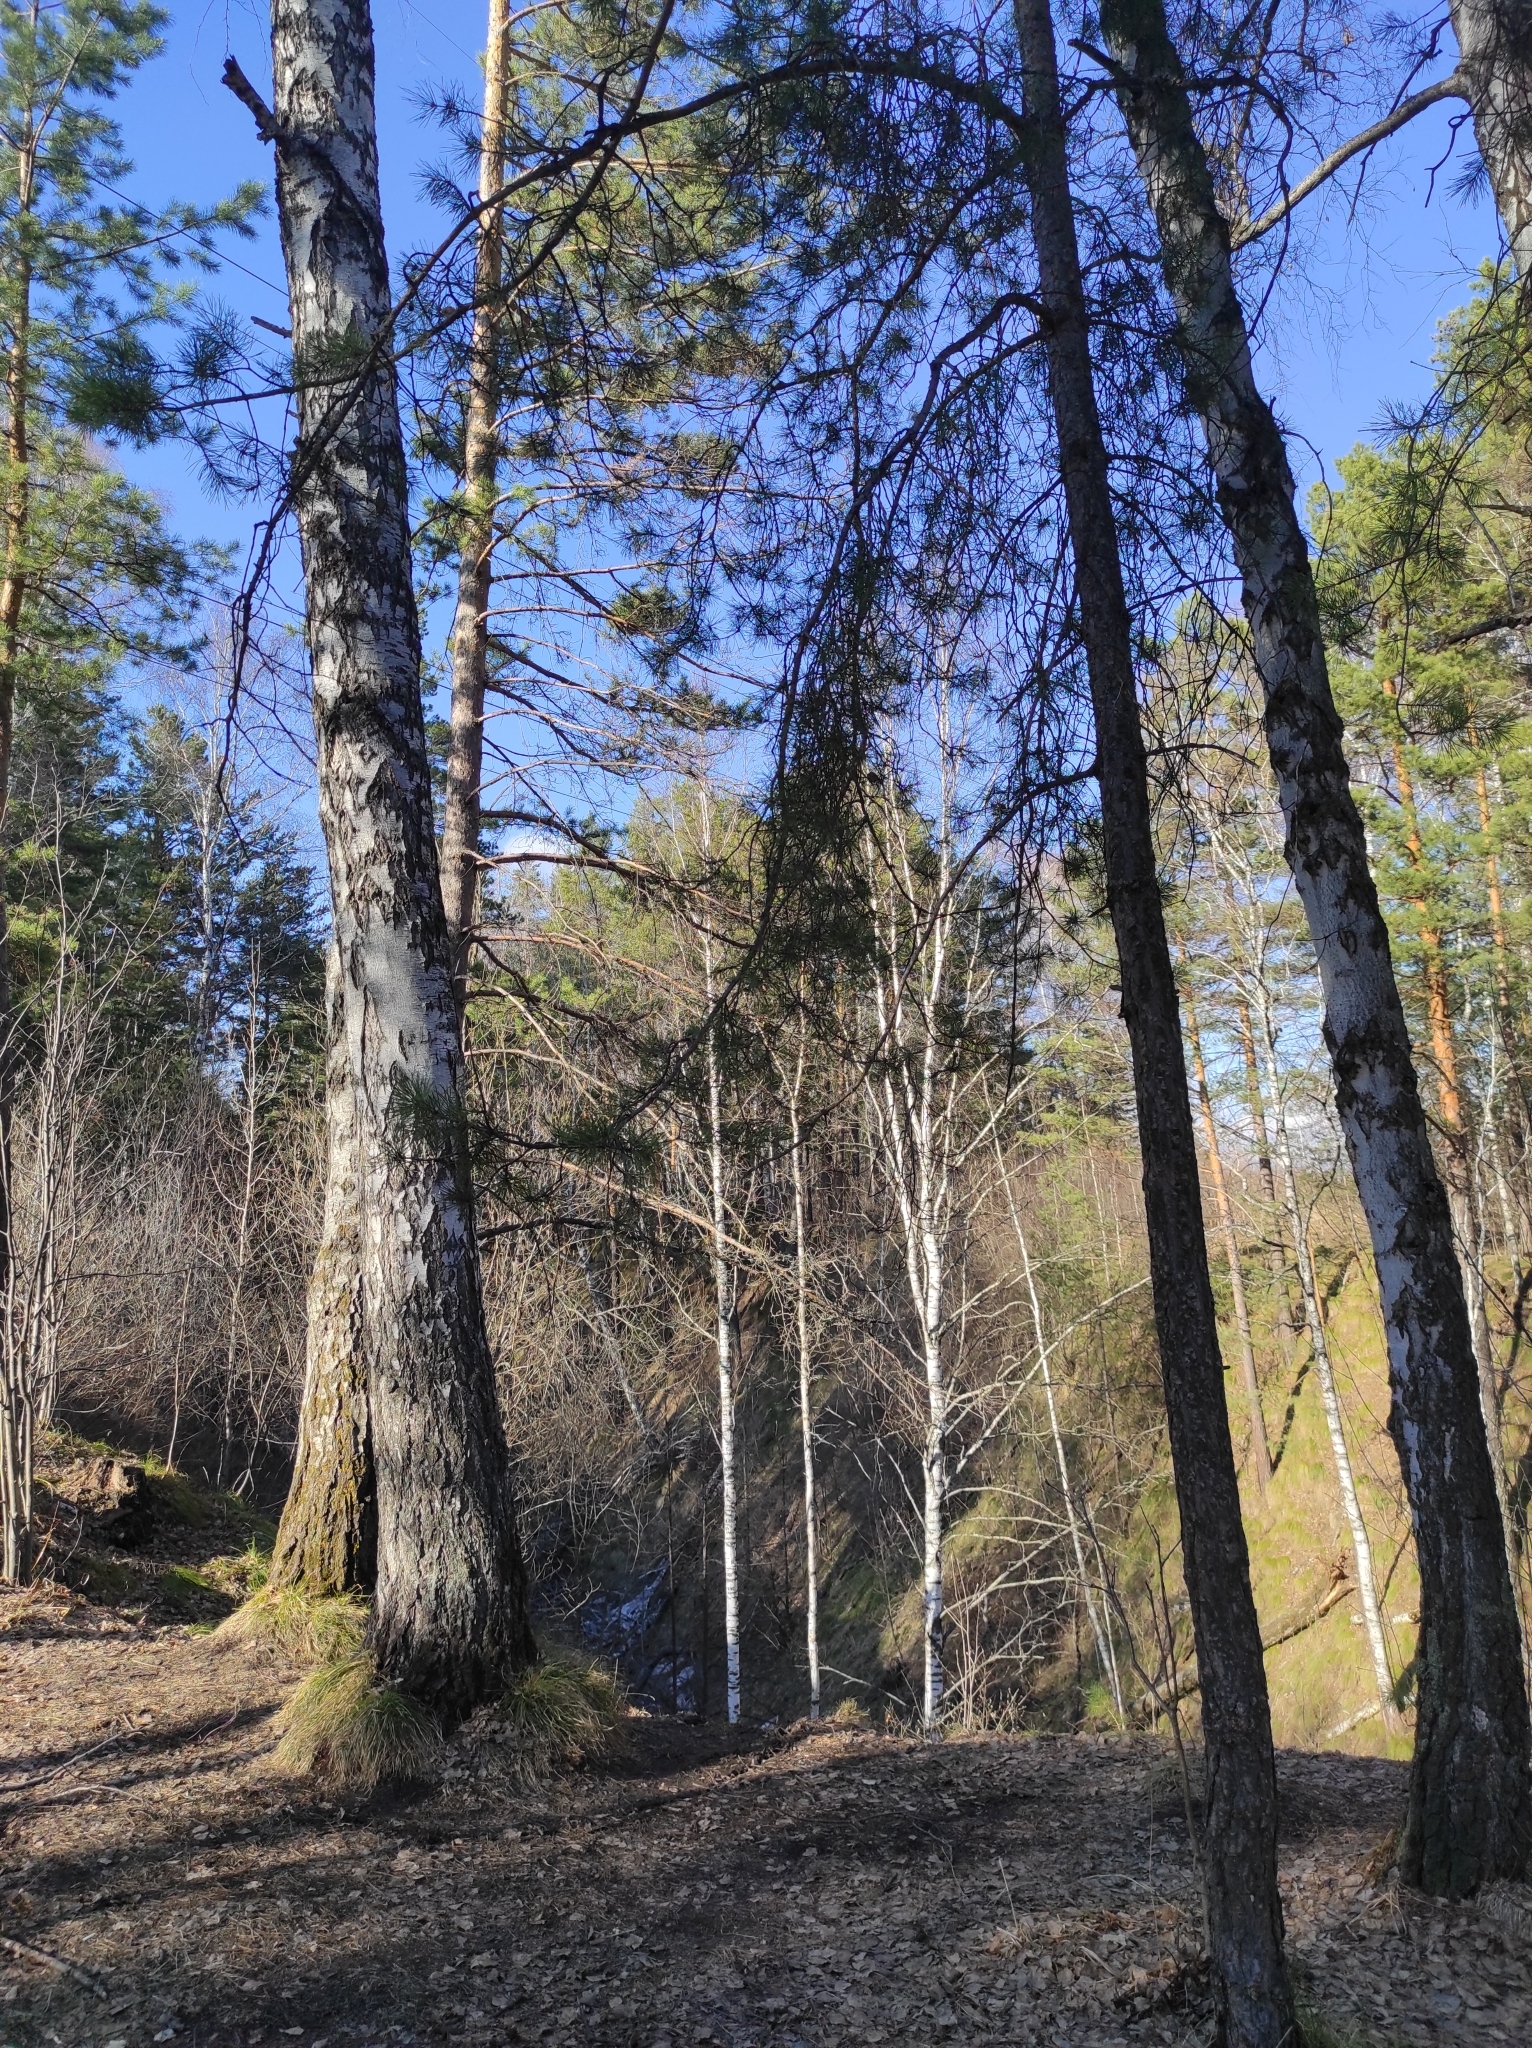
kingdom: Plantae
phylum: Tracheophyta
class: Pinopsida
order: Pinales
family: Pinaceae
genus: Pinus
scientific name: Pinus sylvestris
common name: Scots pine
